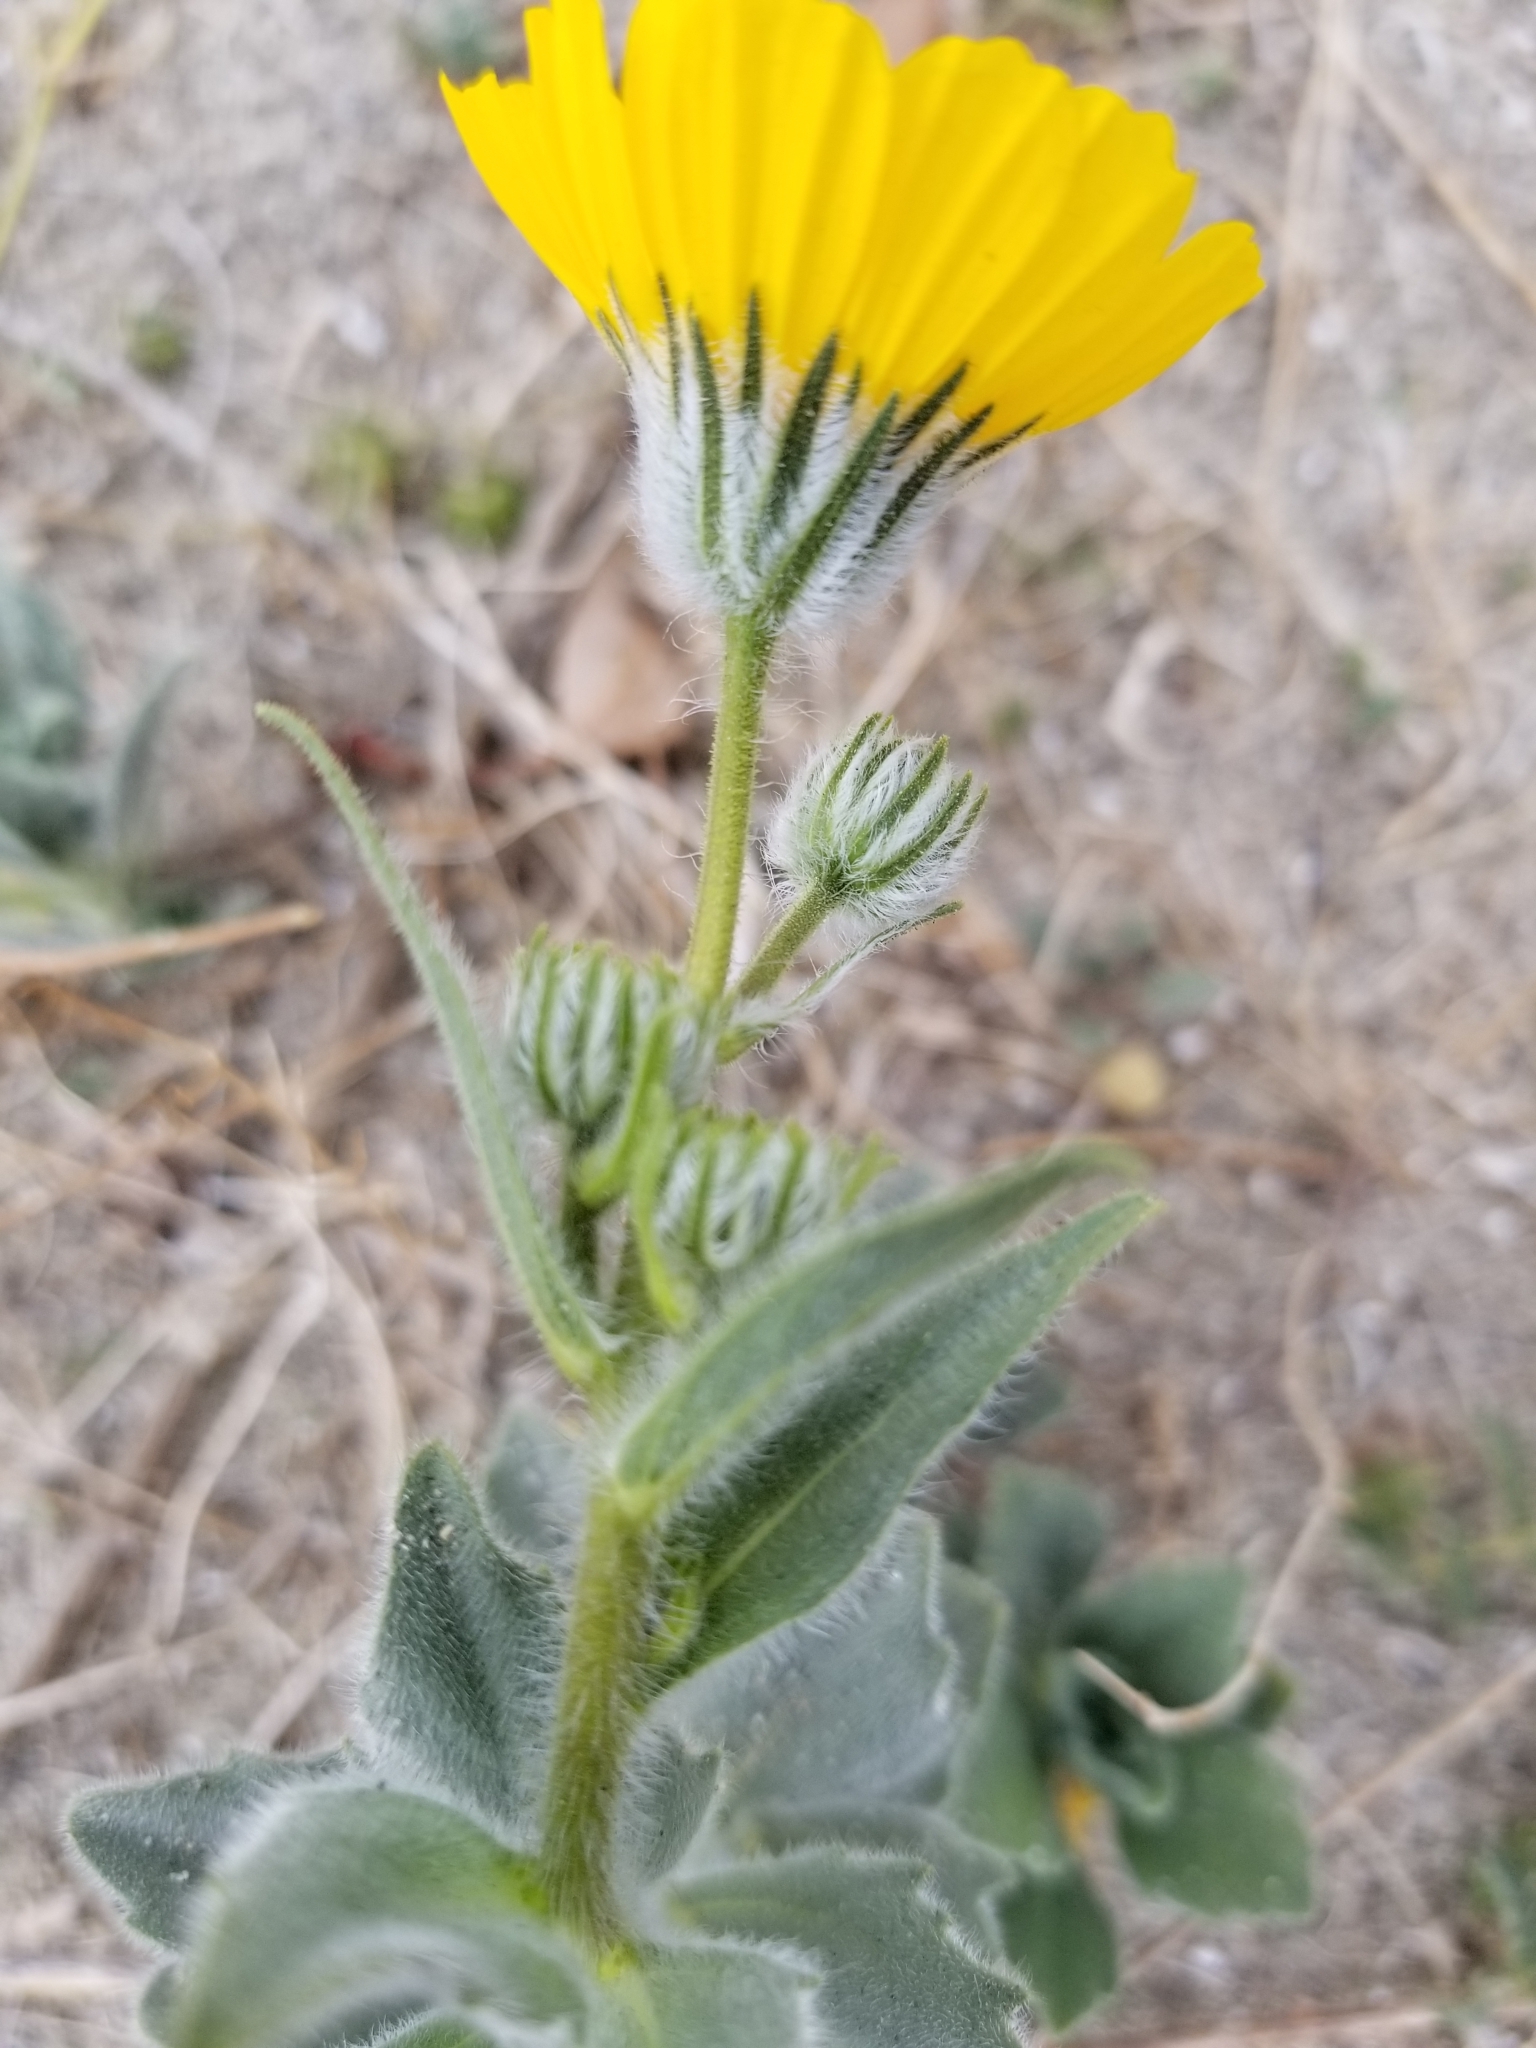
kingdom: Plantae
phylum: Tracheophyta
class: Magnoliopsida
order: Asterales
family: Asteraceae
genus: Geraea
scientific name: Geraea canescens
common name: Desert-gold
